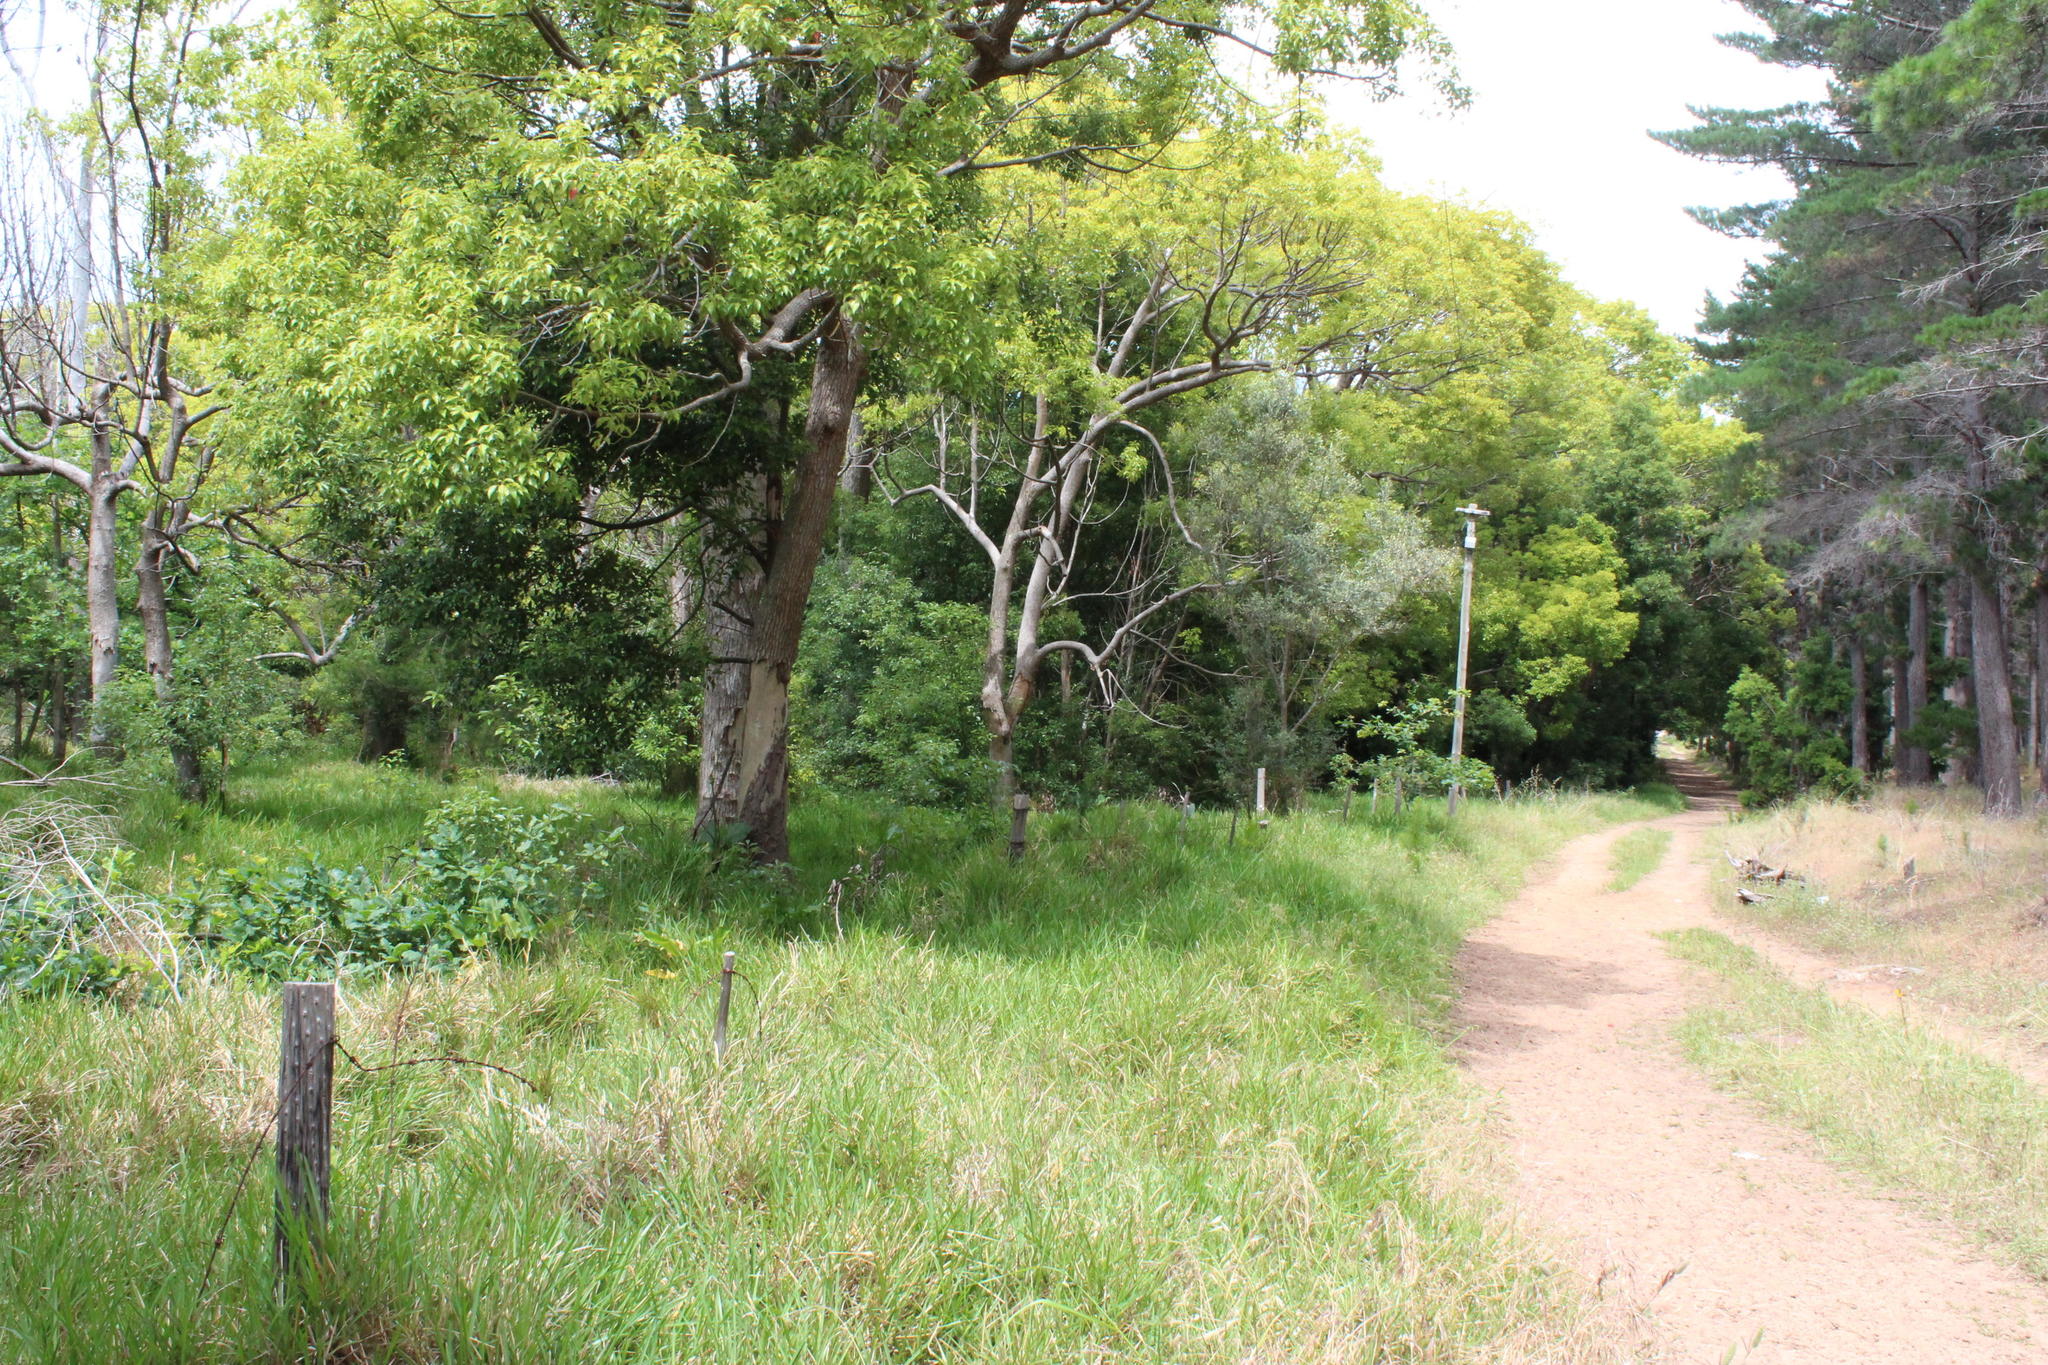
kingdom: Plantae
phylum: Tracheophyta
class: Magnoliopsida
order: Laurales
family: Lauraceae
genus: Cinnamomum
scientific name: Cinnamomum camphora
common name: Camphortree
